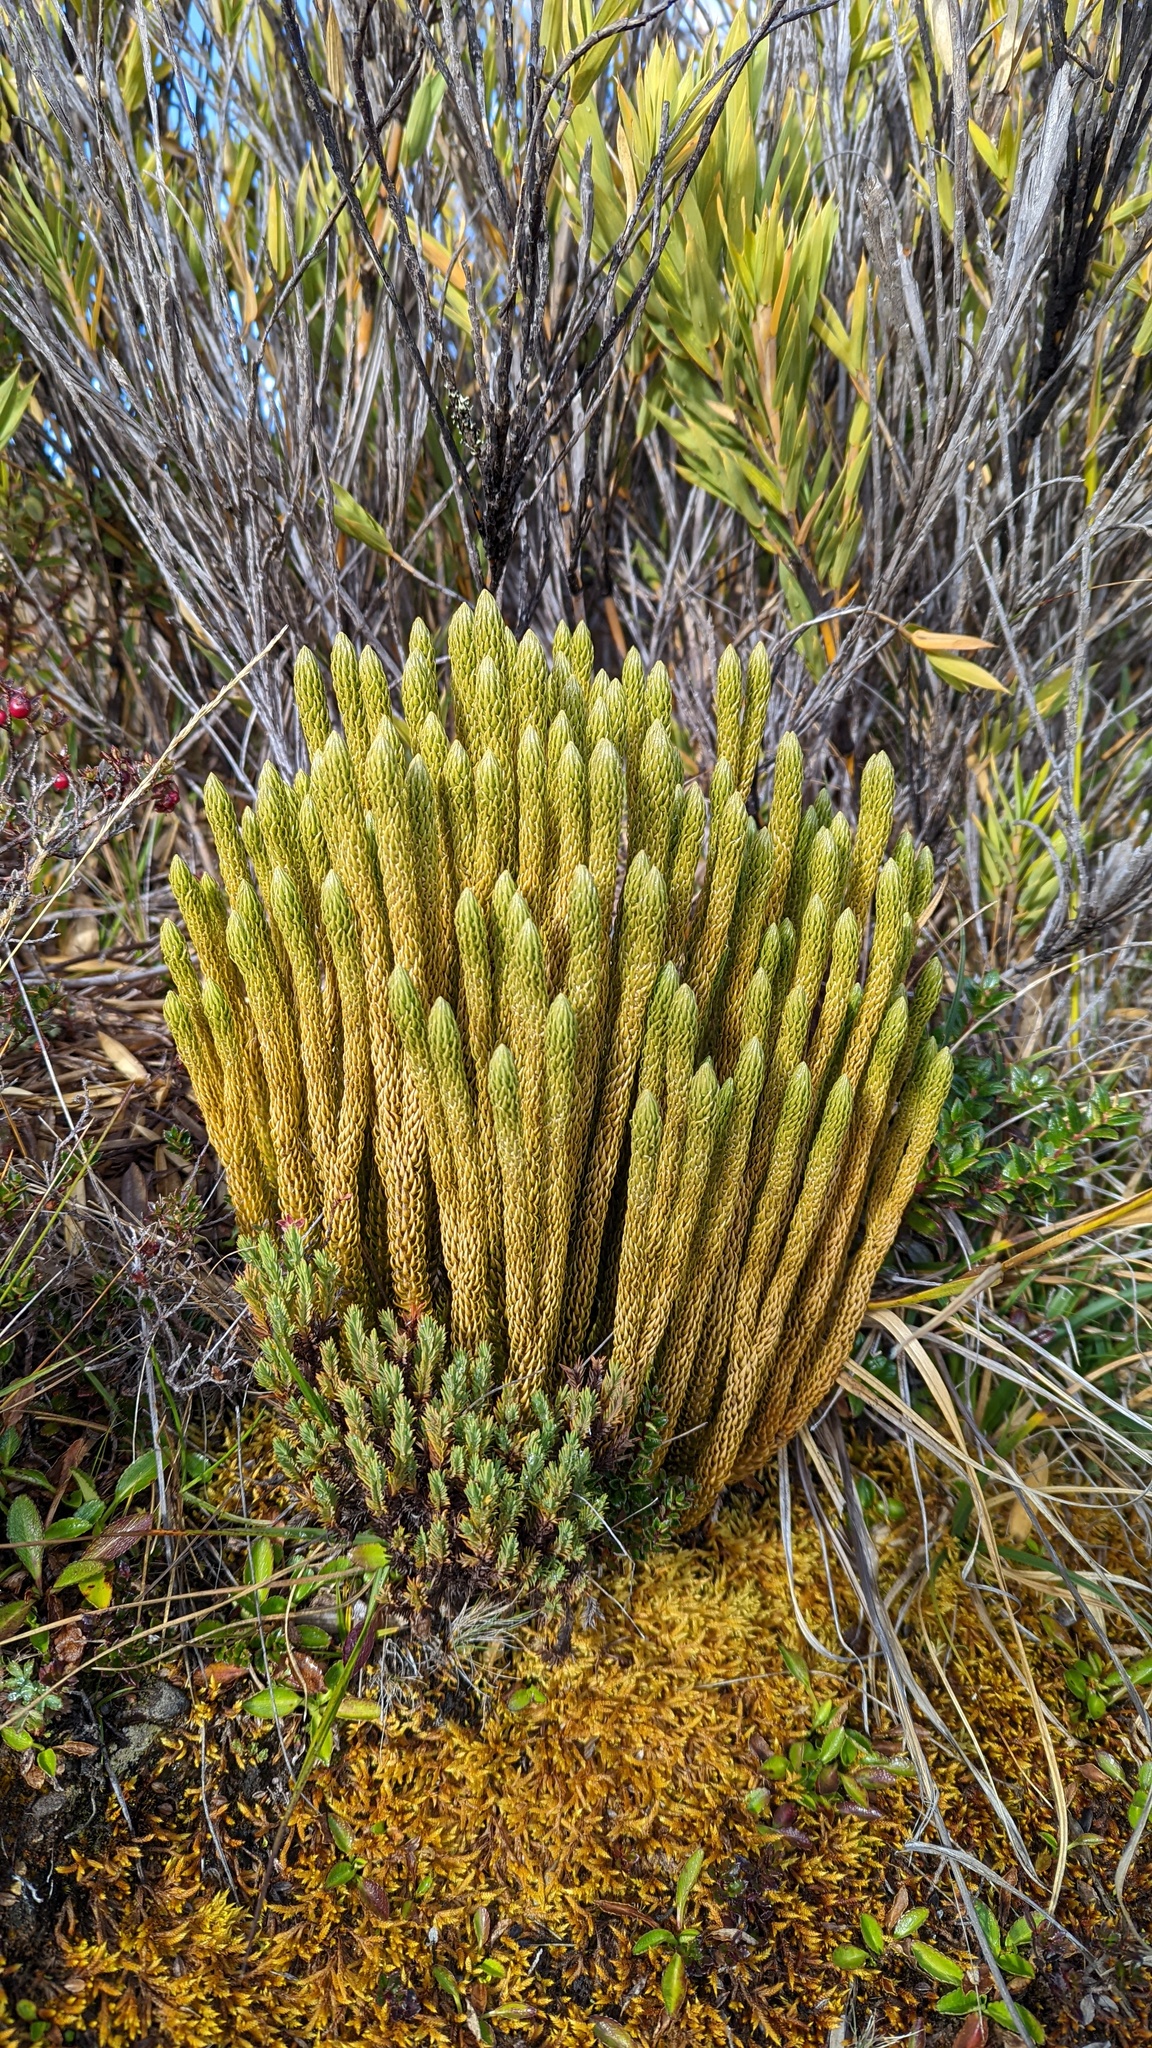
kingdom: Plantae
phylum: Tracheophyta
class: Lycopodiopsida
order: Lycopodiales
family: Lycopodiaceae
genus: Phlegmariurus
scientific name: Phlegmariurus talamancanus
